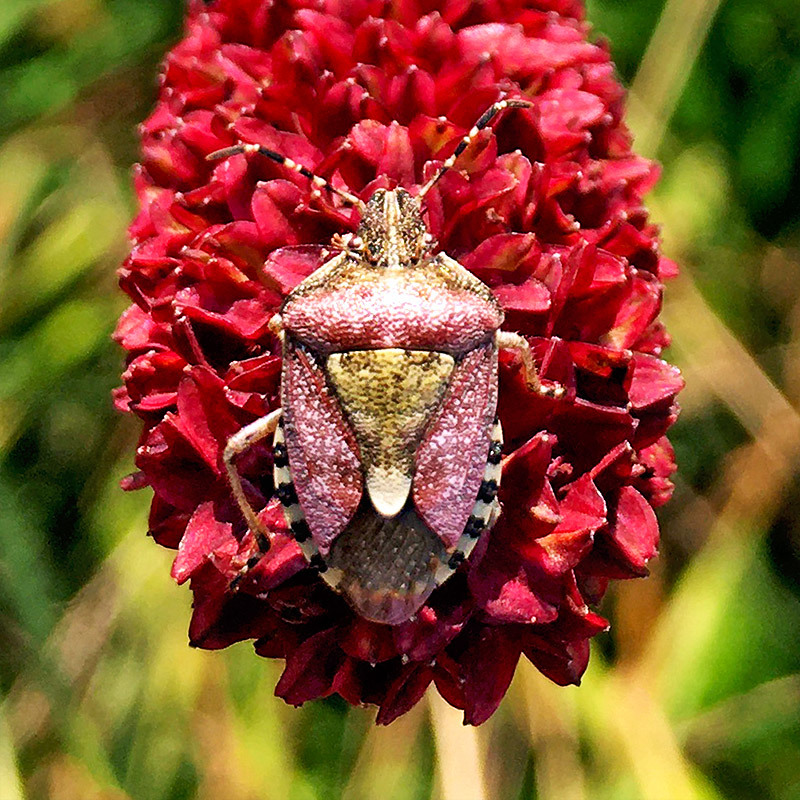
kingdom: Animalia
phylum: Arthropoda
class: Insecta
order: Hemiptera
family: Pentatomidae
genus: Dolycoris
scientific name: Dolycoris baccarum
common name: Sloe bug
